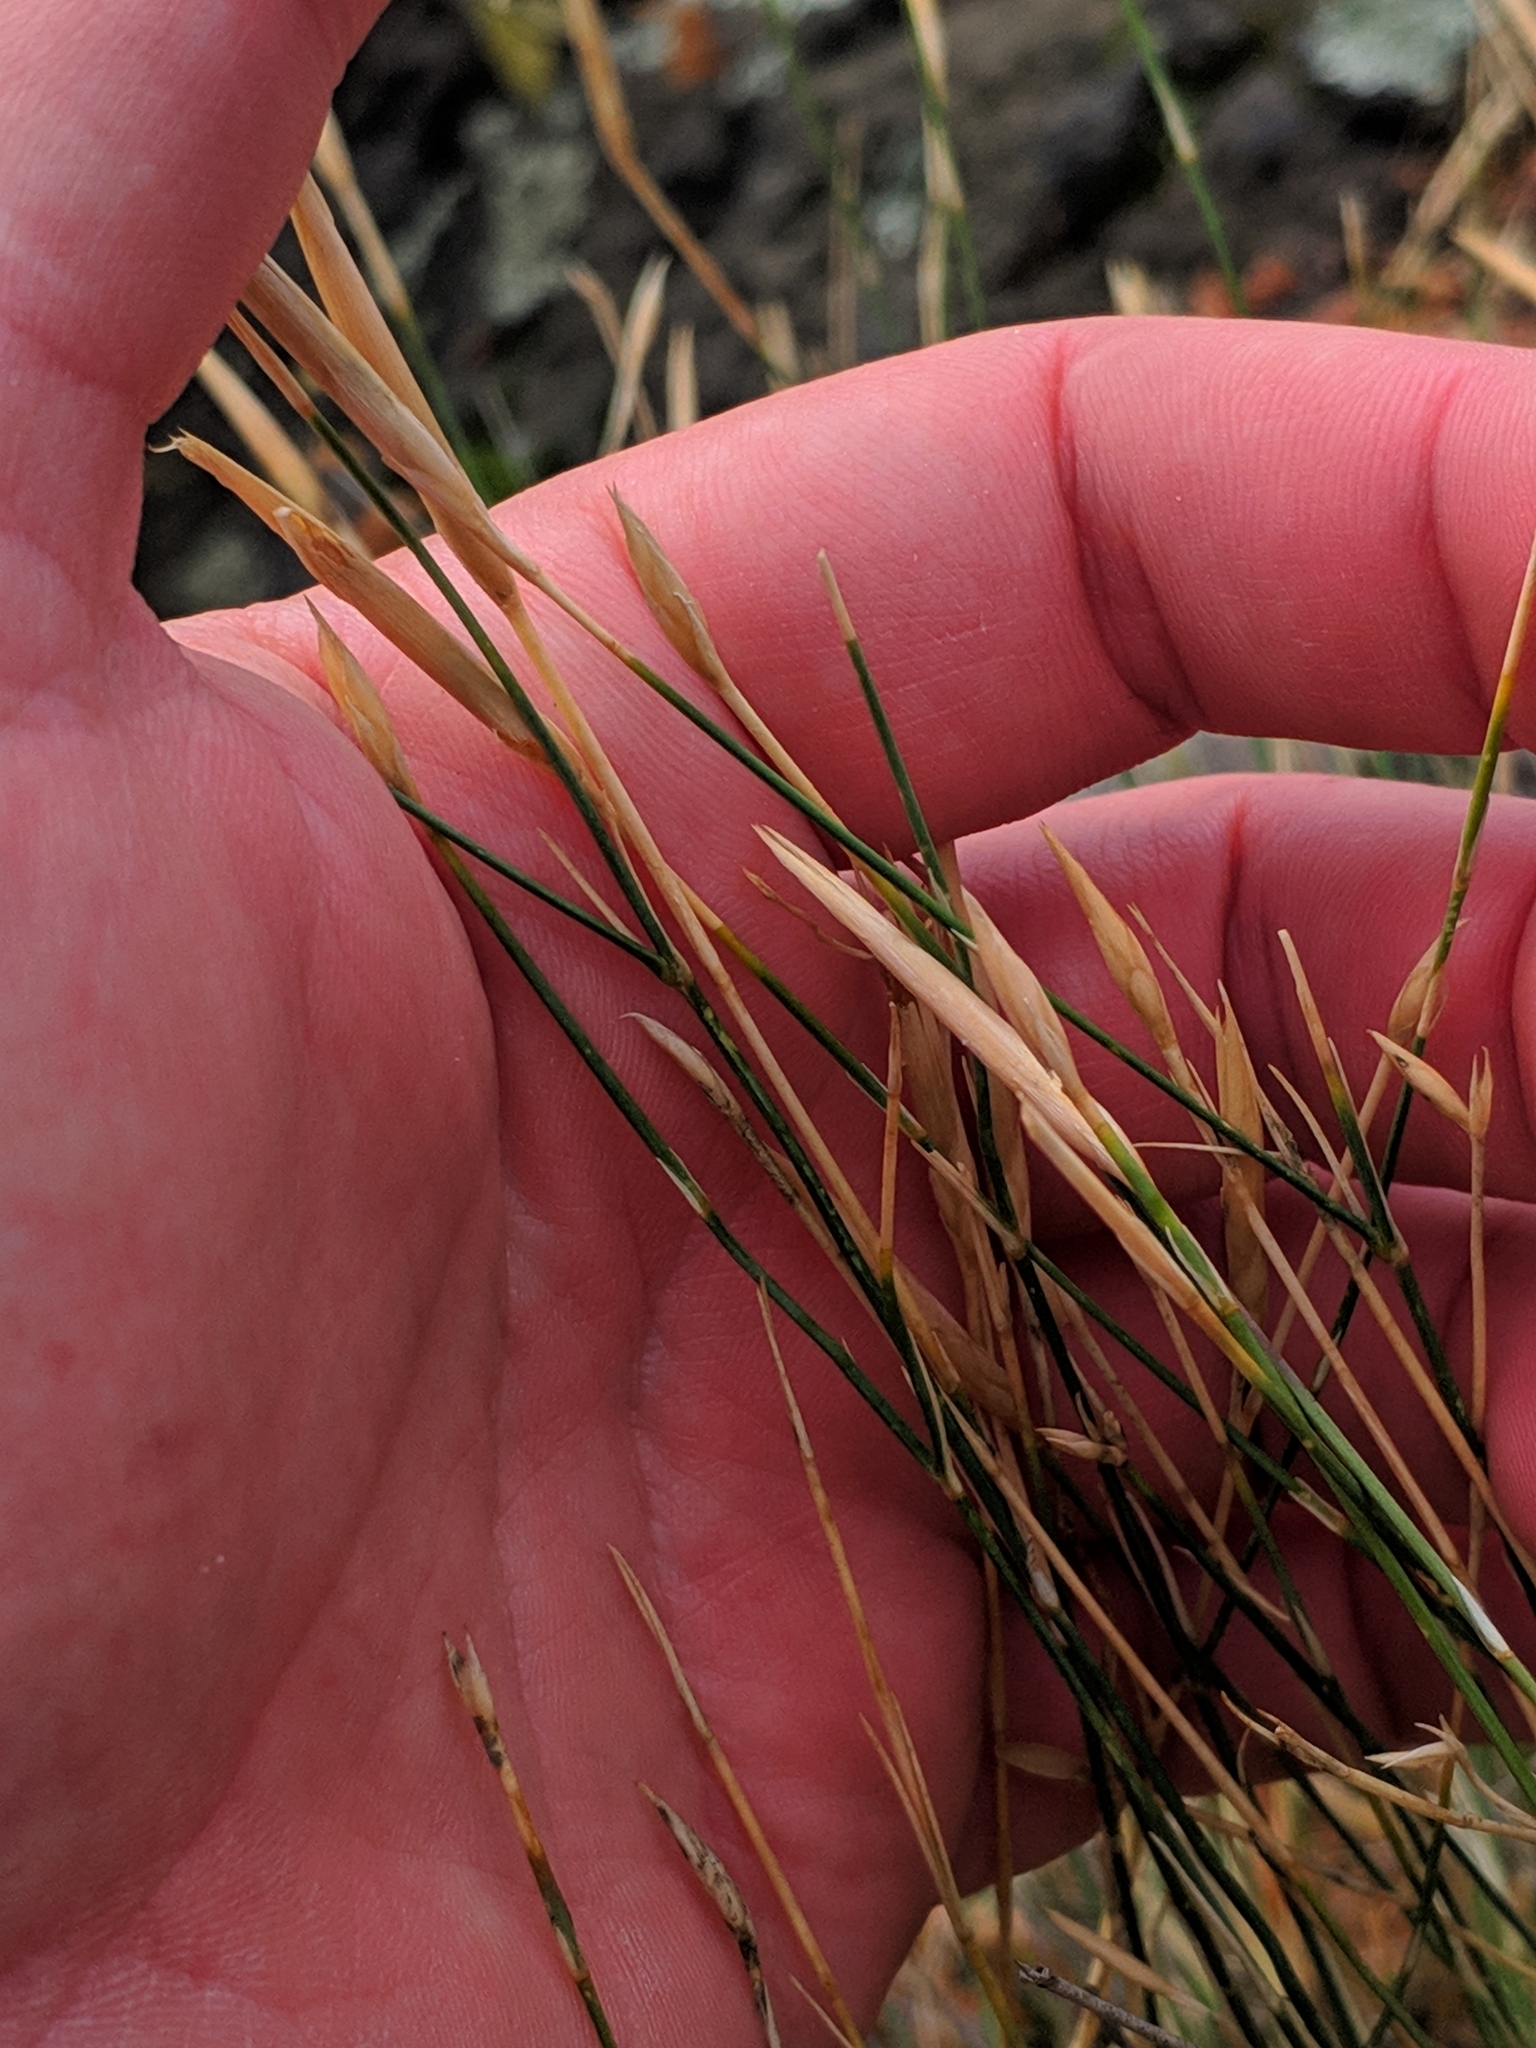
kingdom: Plantae
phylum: Tracheophyta
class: Magnoliopsida
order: Caryophyllales
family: Caryophyllaceae
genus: Dianthus
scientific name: Dianthus orientalis
